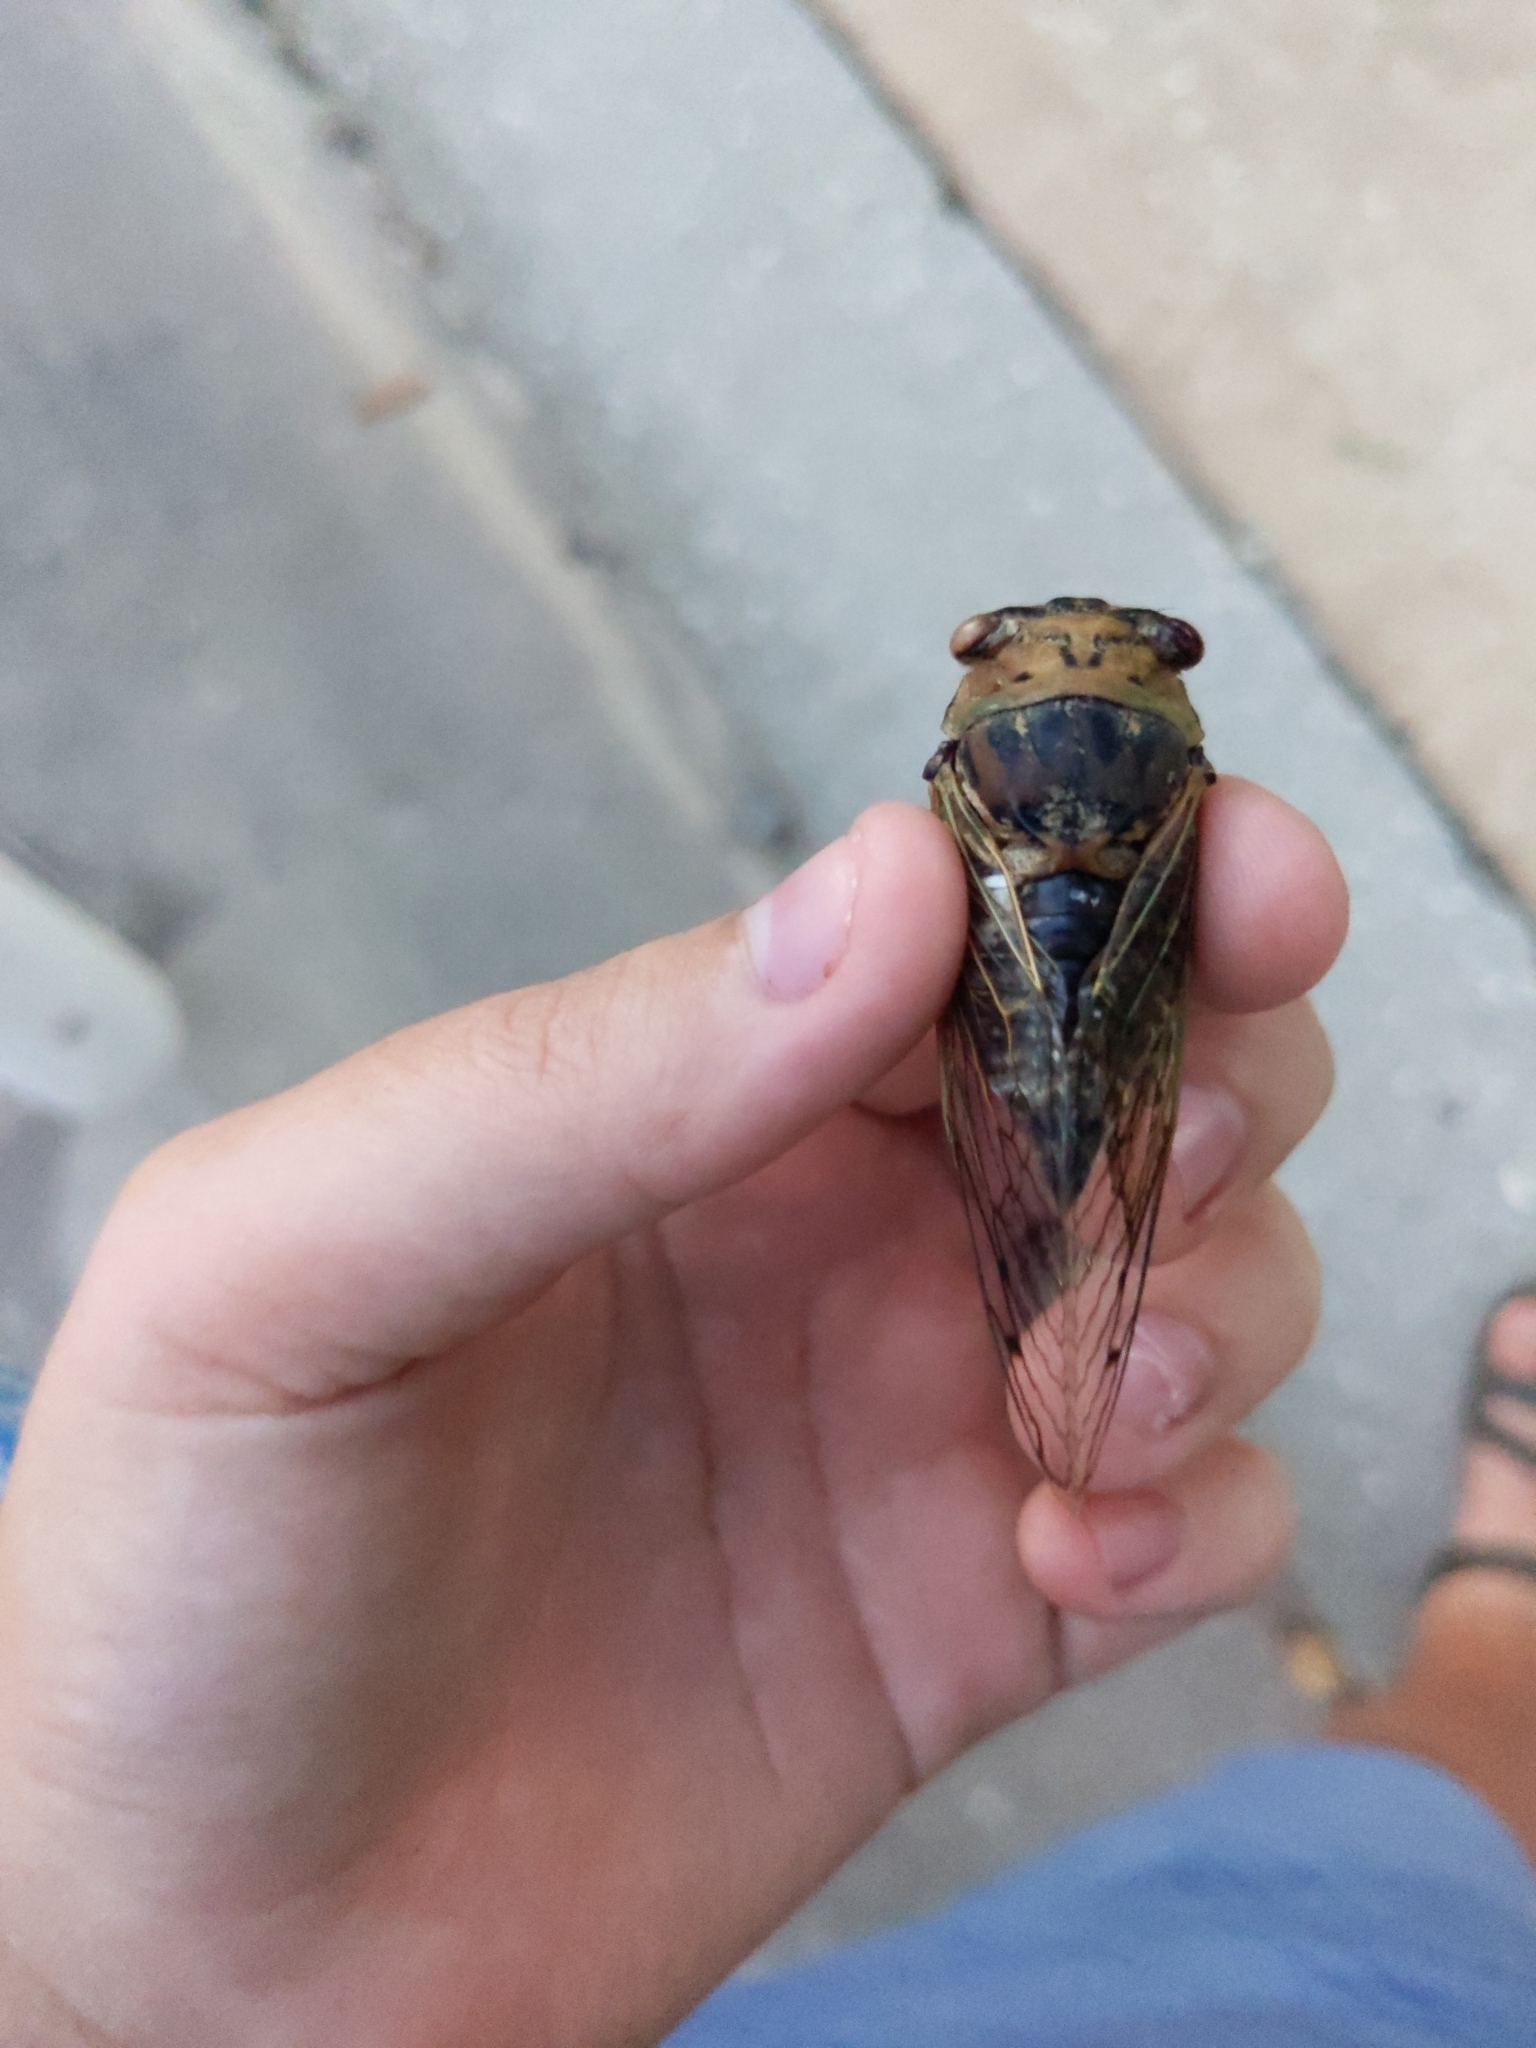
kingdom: Animalia
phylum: Arthropoda
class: Insecta
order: Hemiptera
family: Cicadidae
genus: Megatibicen
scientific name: Megatibicen resh
